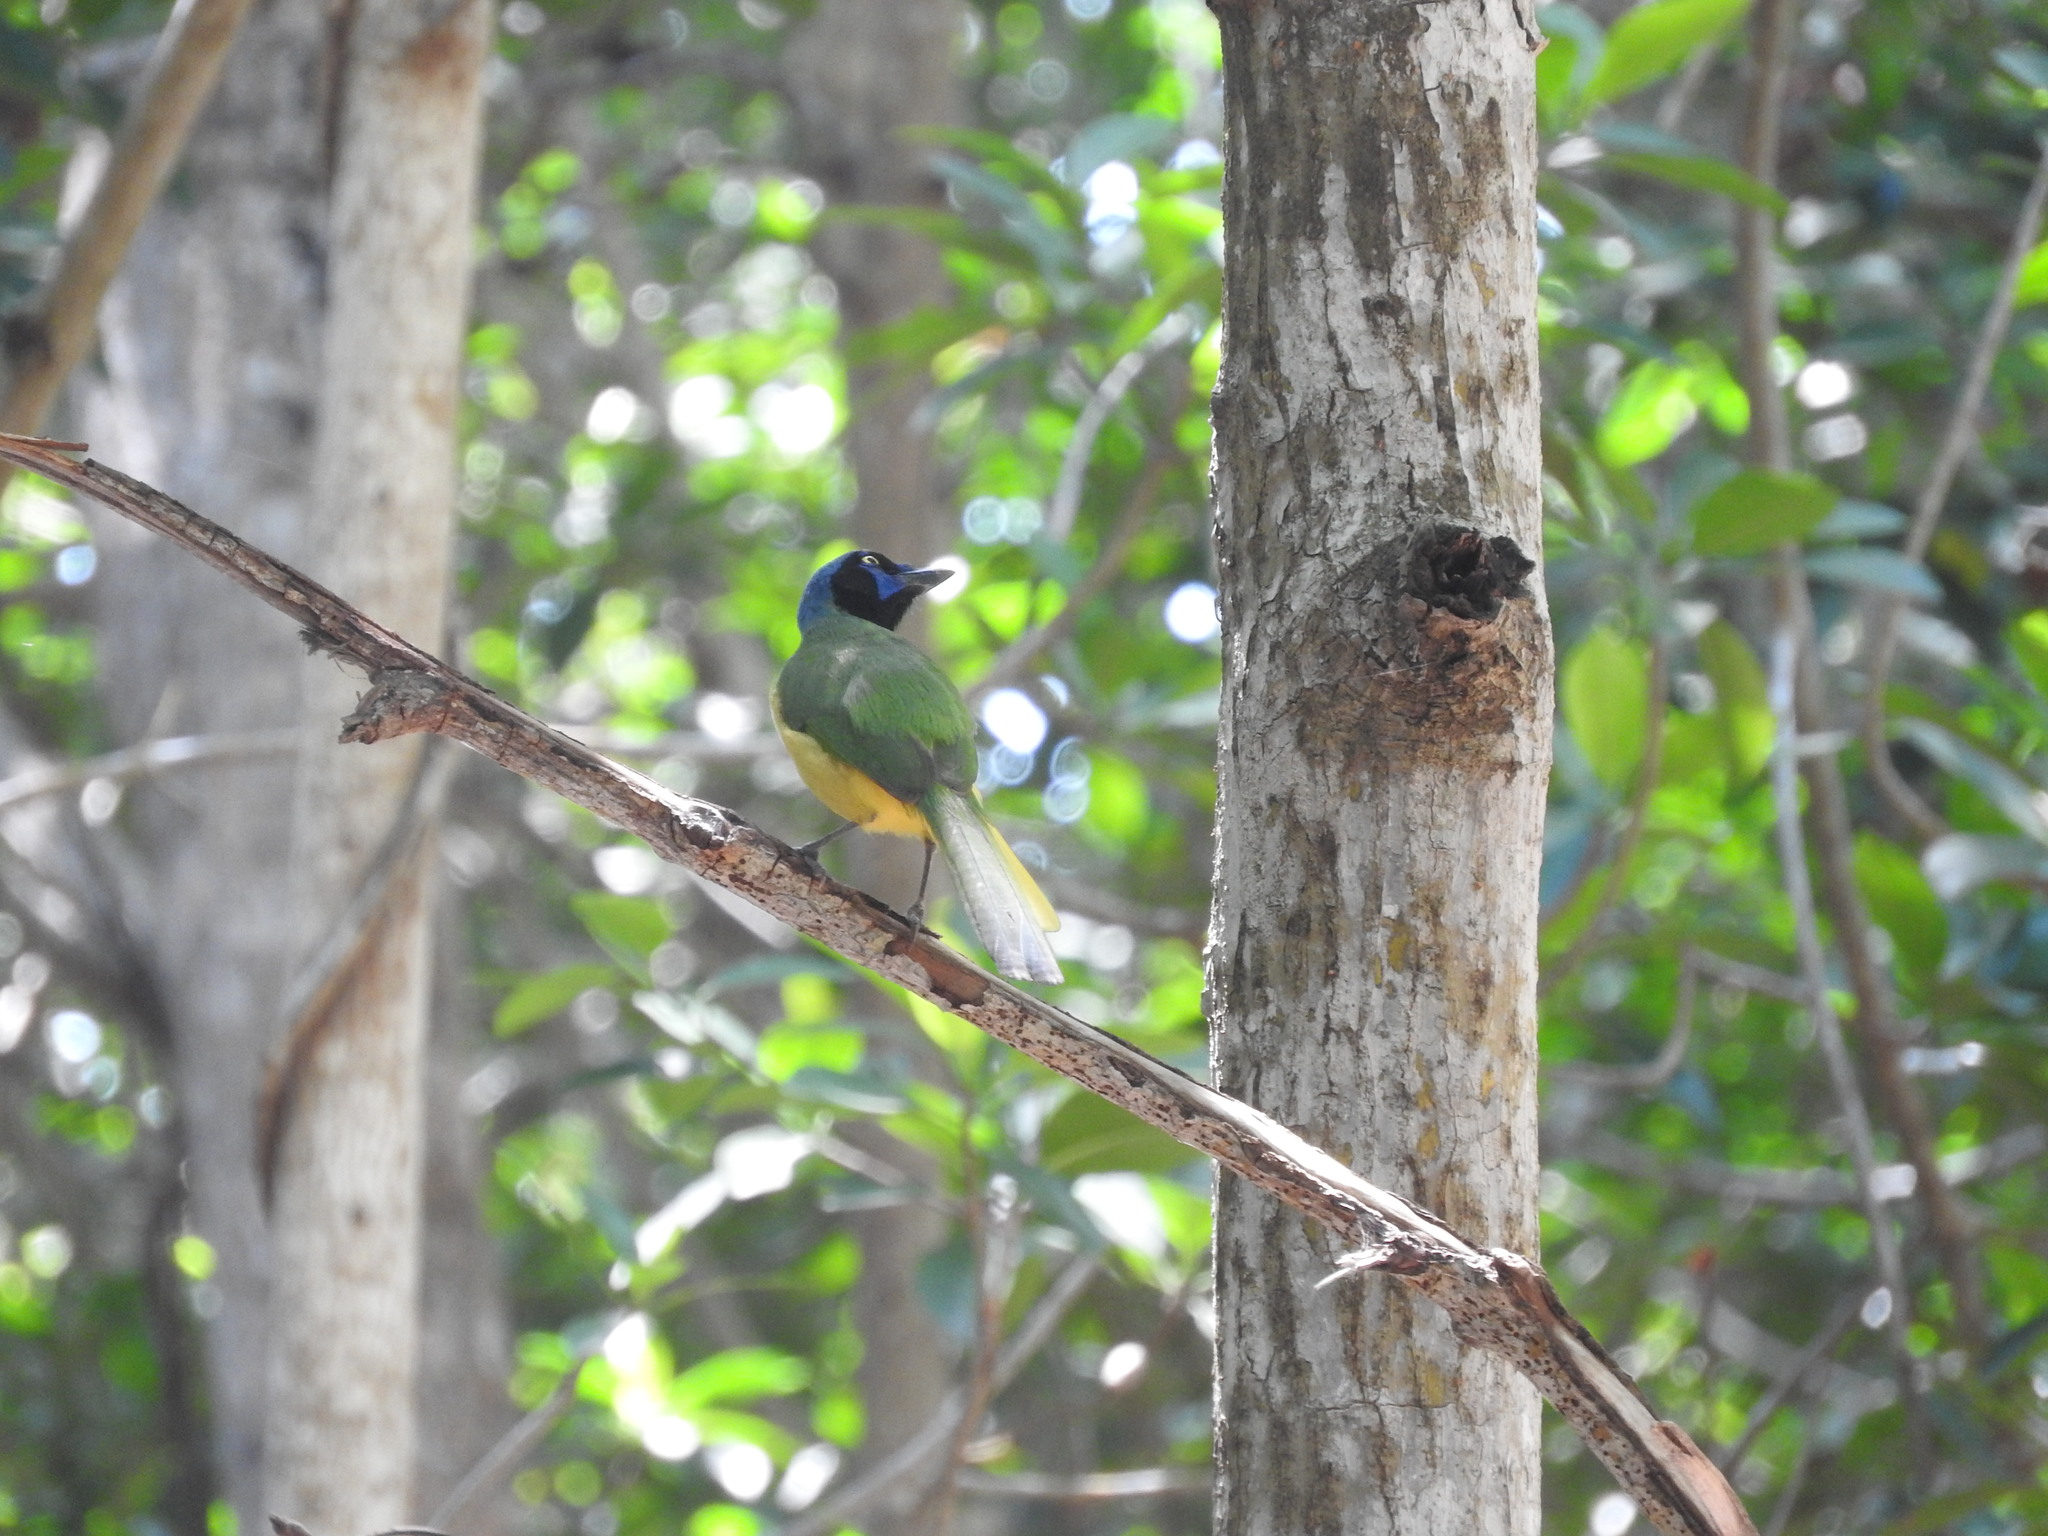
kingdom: Animalia
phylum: Chordata
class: Aves
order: Passeriformes
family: Corvidae
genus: Cyanocorax
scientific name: Cyanocorax yncas
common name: Green jay
